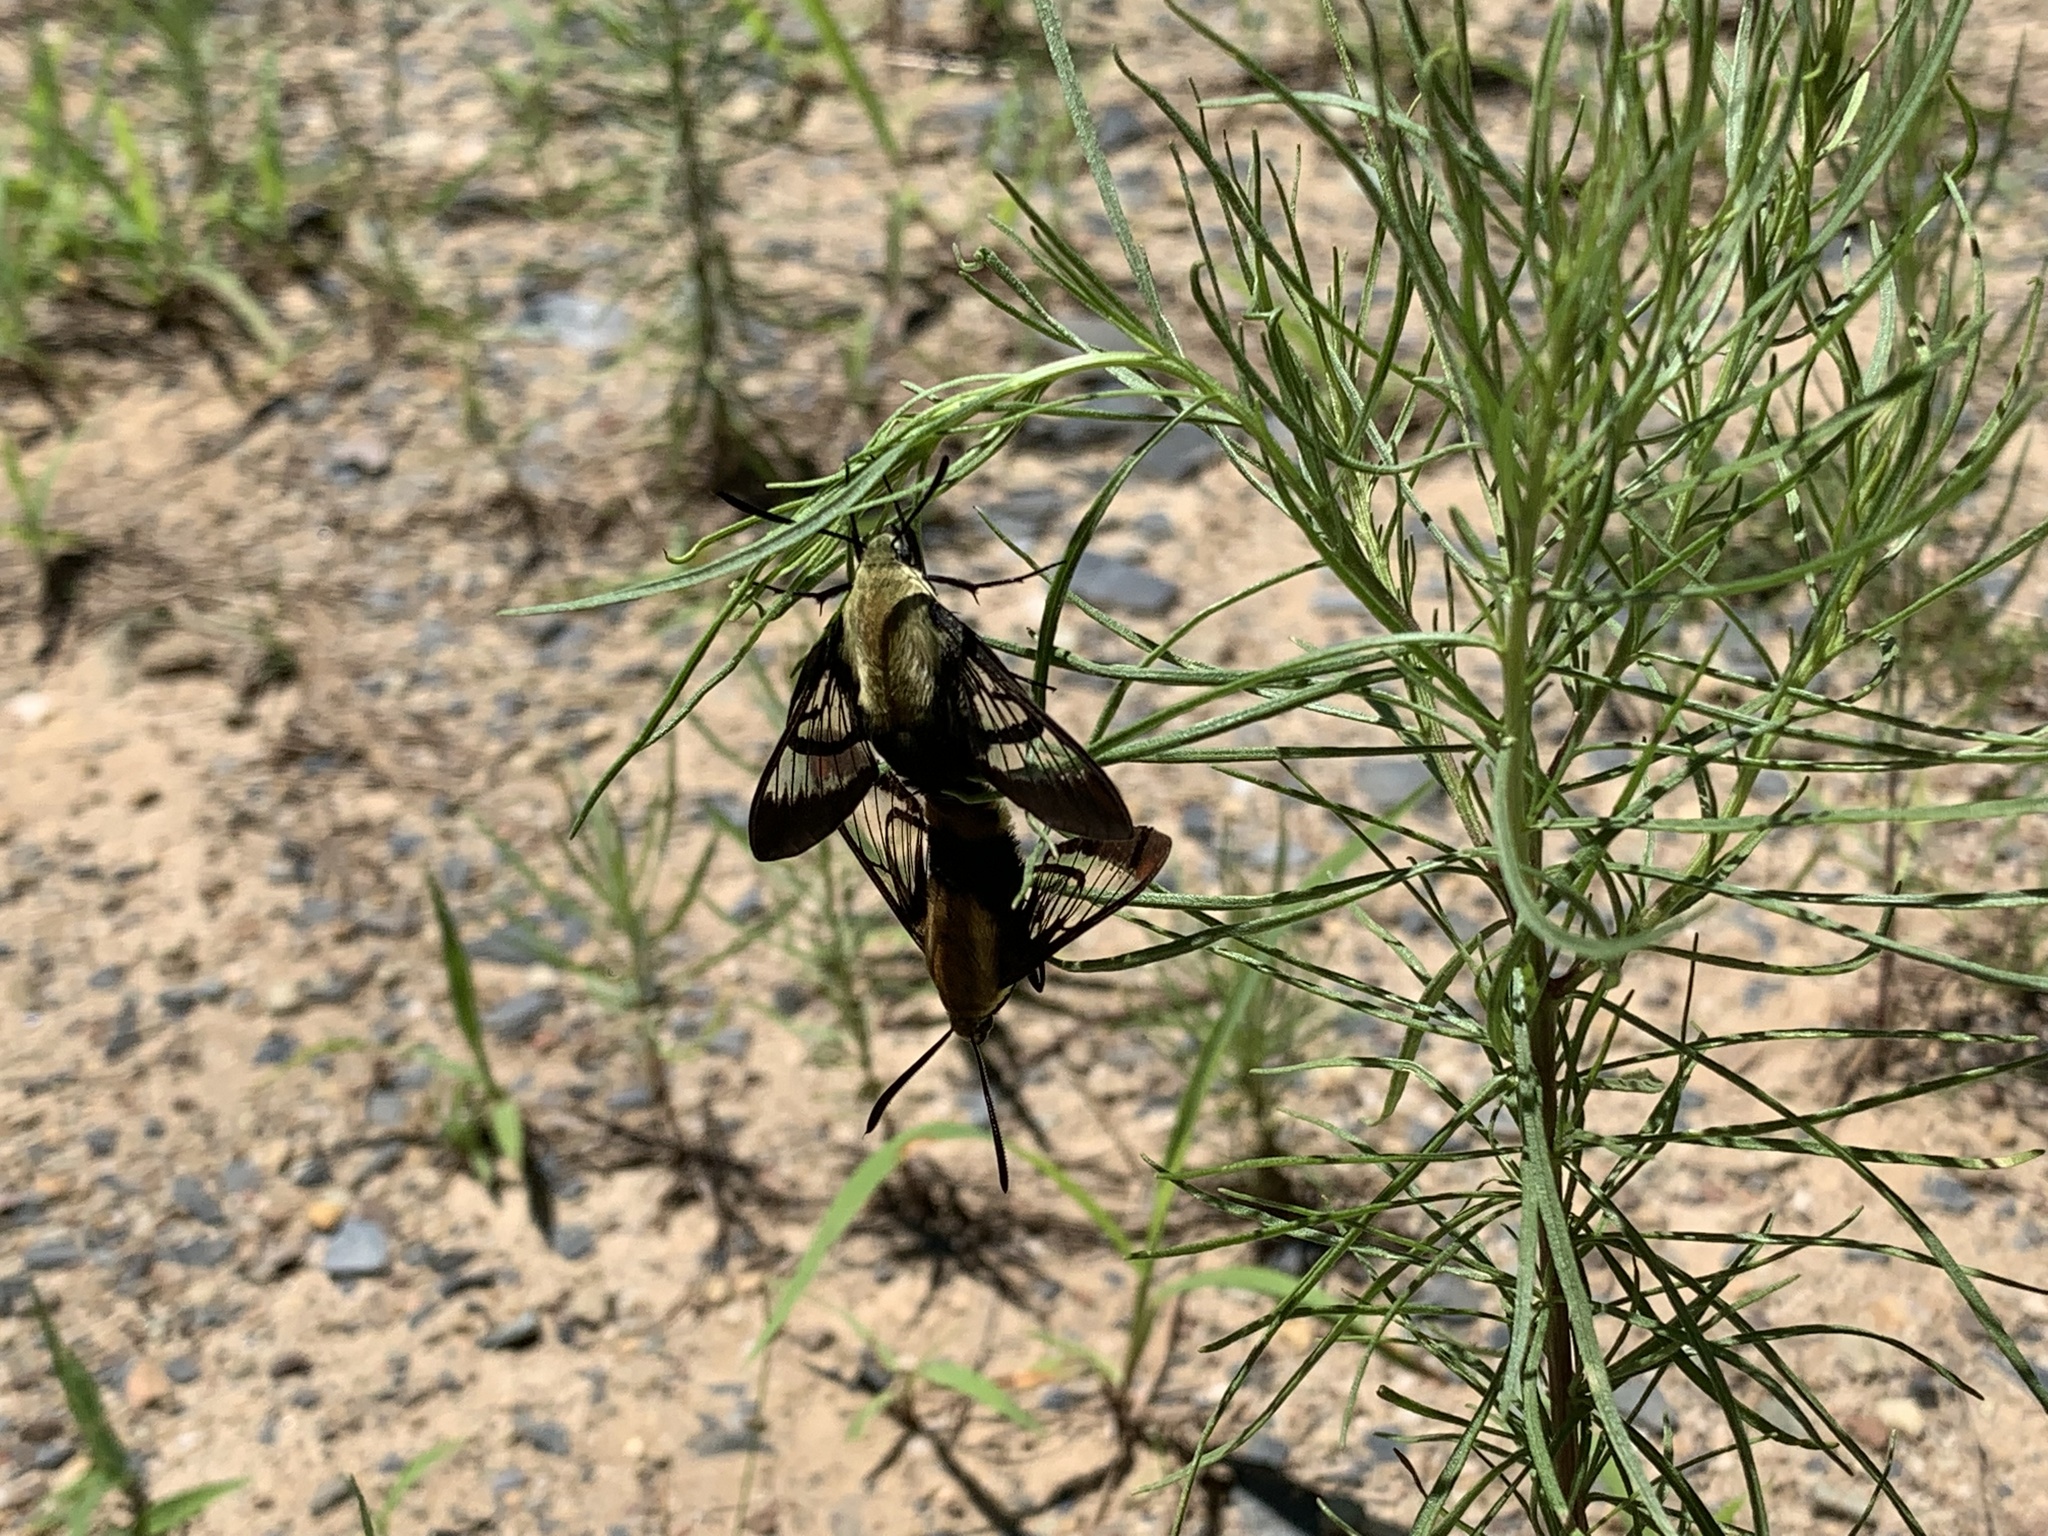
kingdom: Animalia
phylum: Arthropoda
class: Insecta
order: Lepidoptera
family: Sphingidae
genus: Hemaris
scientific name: Hemaris diffinis
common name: Bumblebee moth
